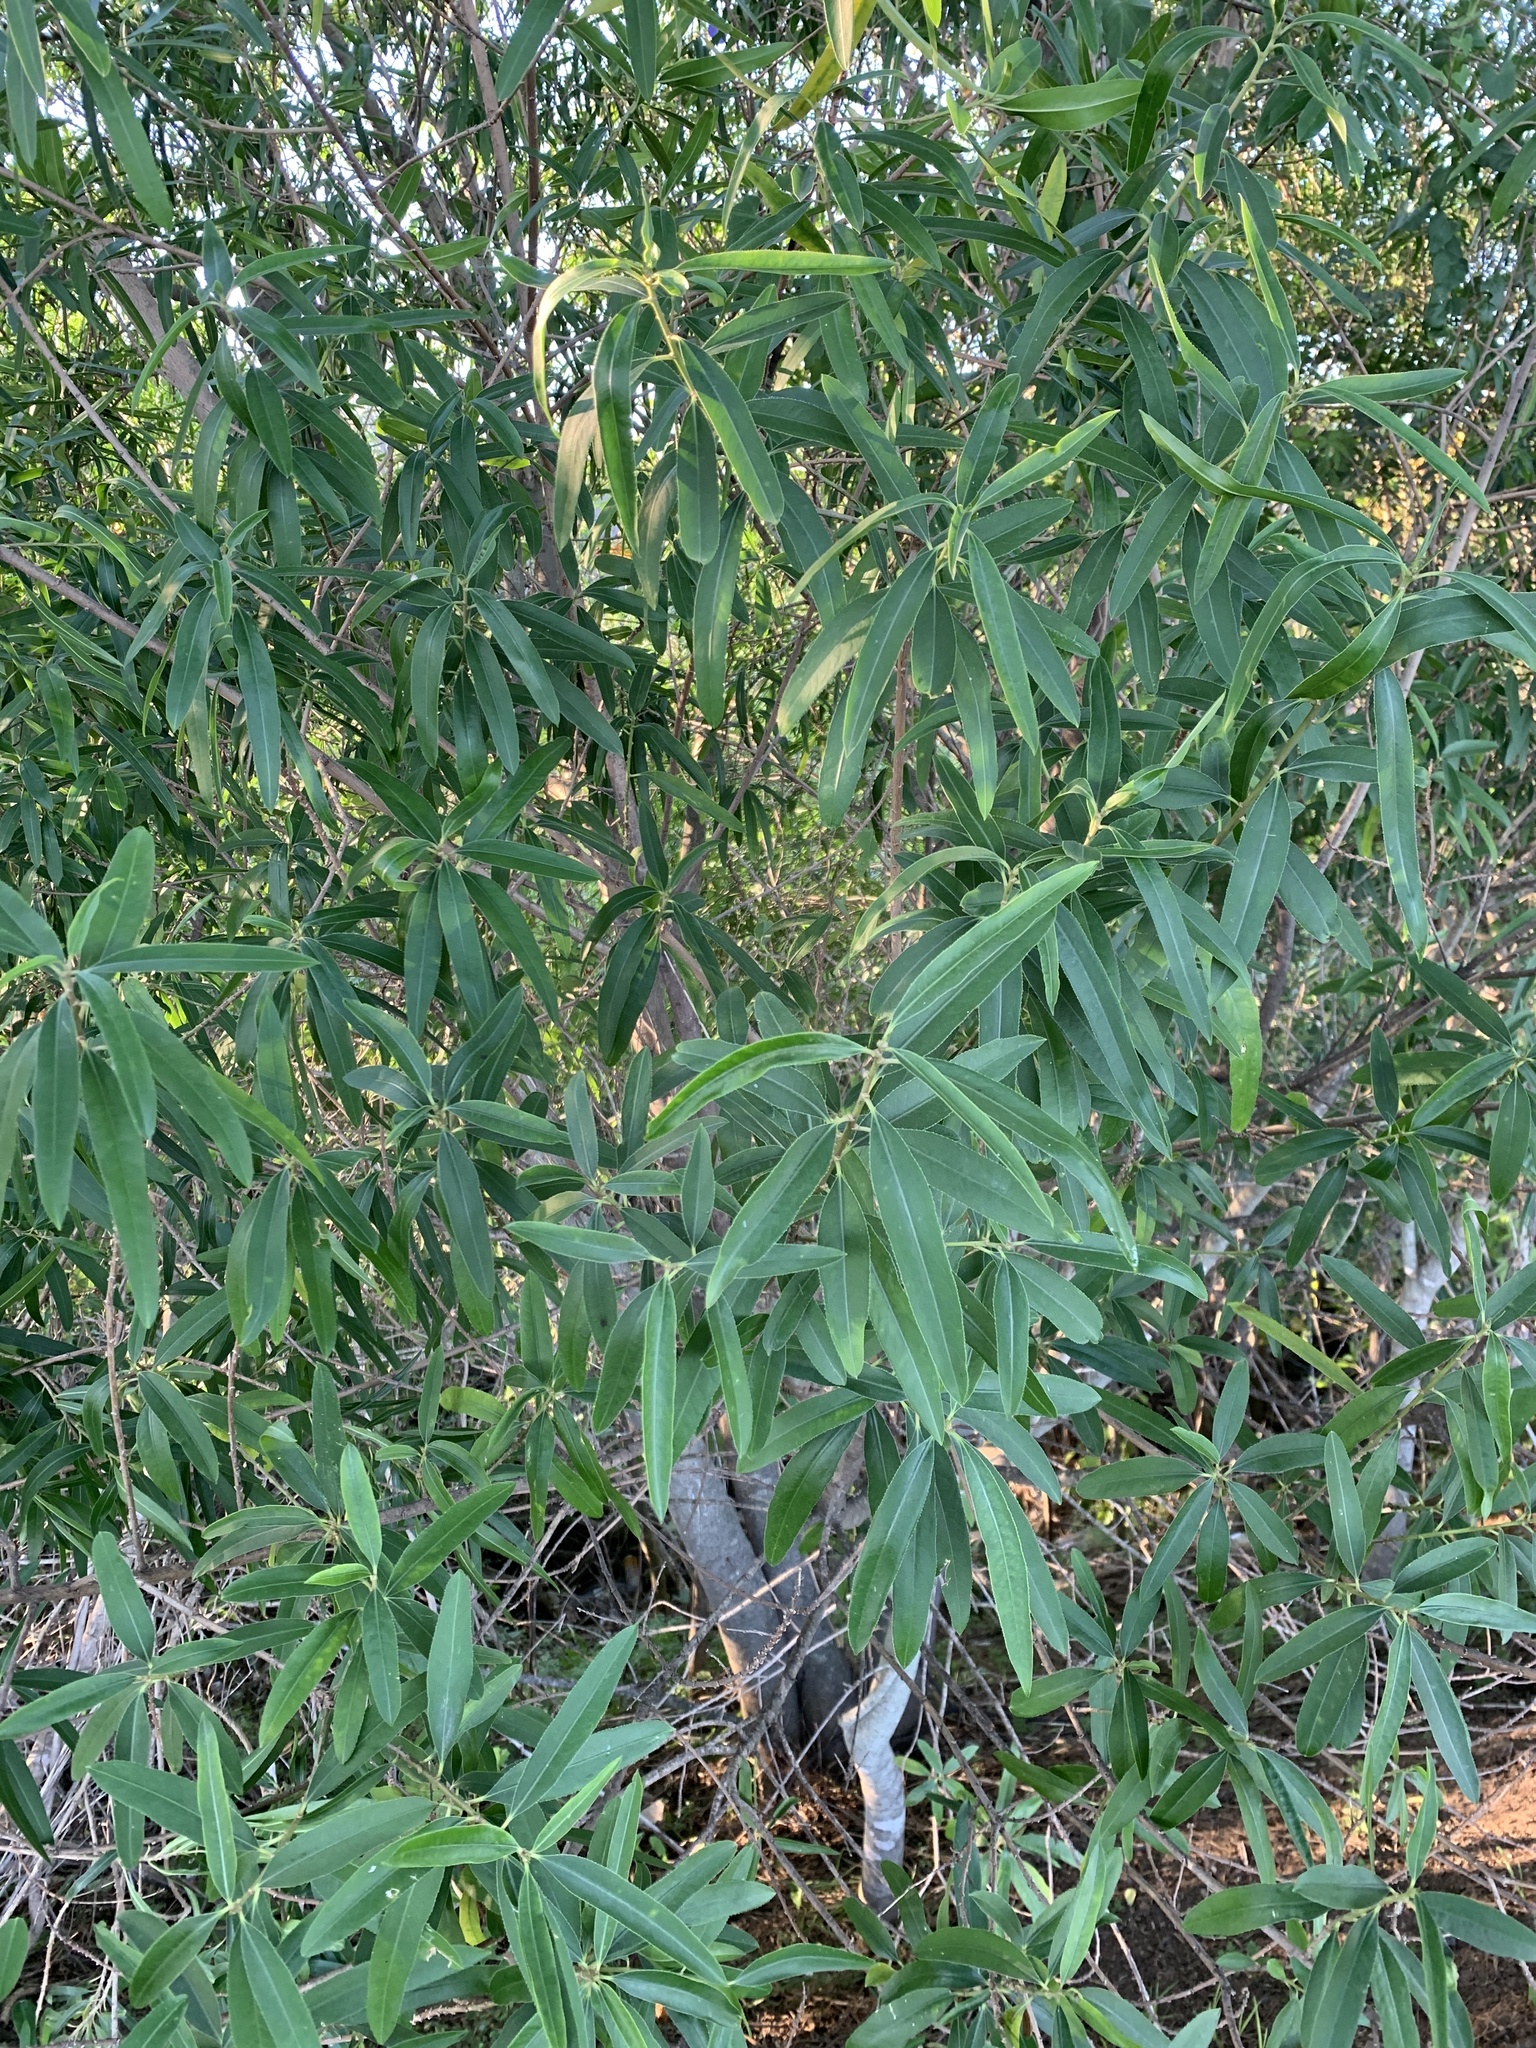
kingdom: Plantae
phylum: Tracheophyta
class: Magnoliopsida
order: Malpighiales
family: Euphorbiaceae
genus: Sapium
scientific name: Sapium haematospermum
